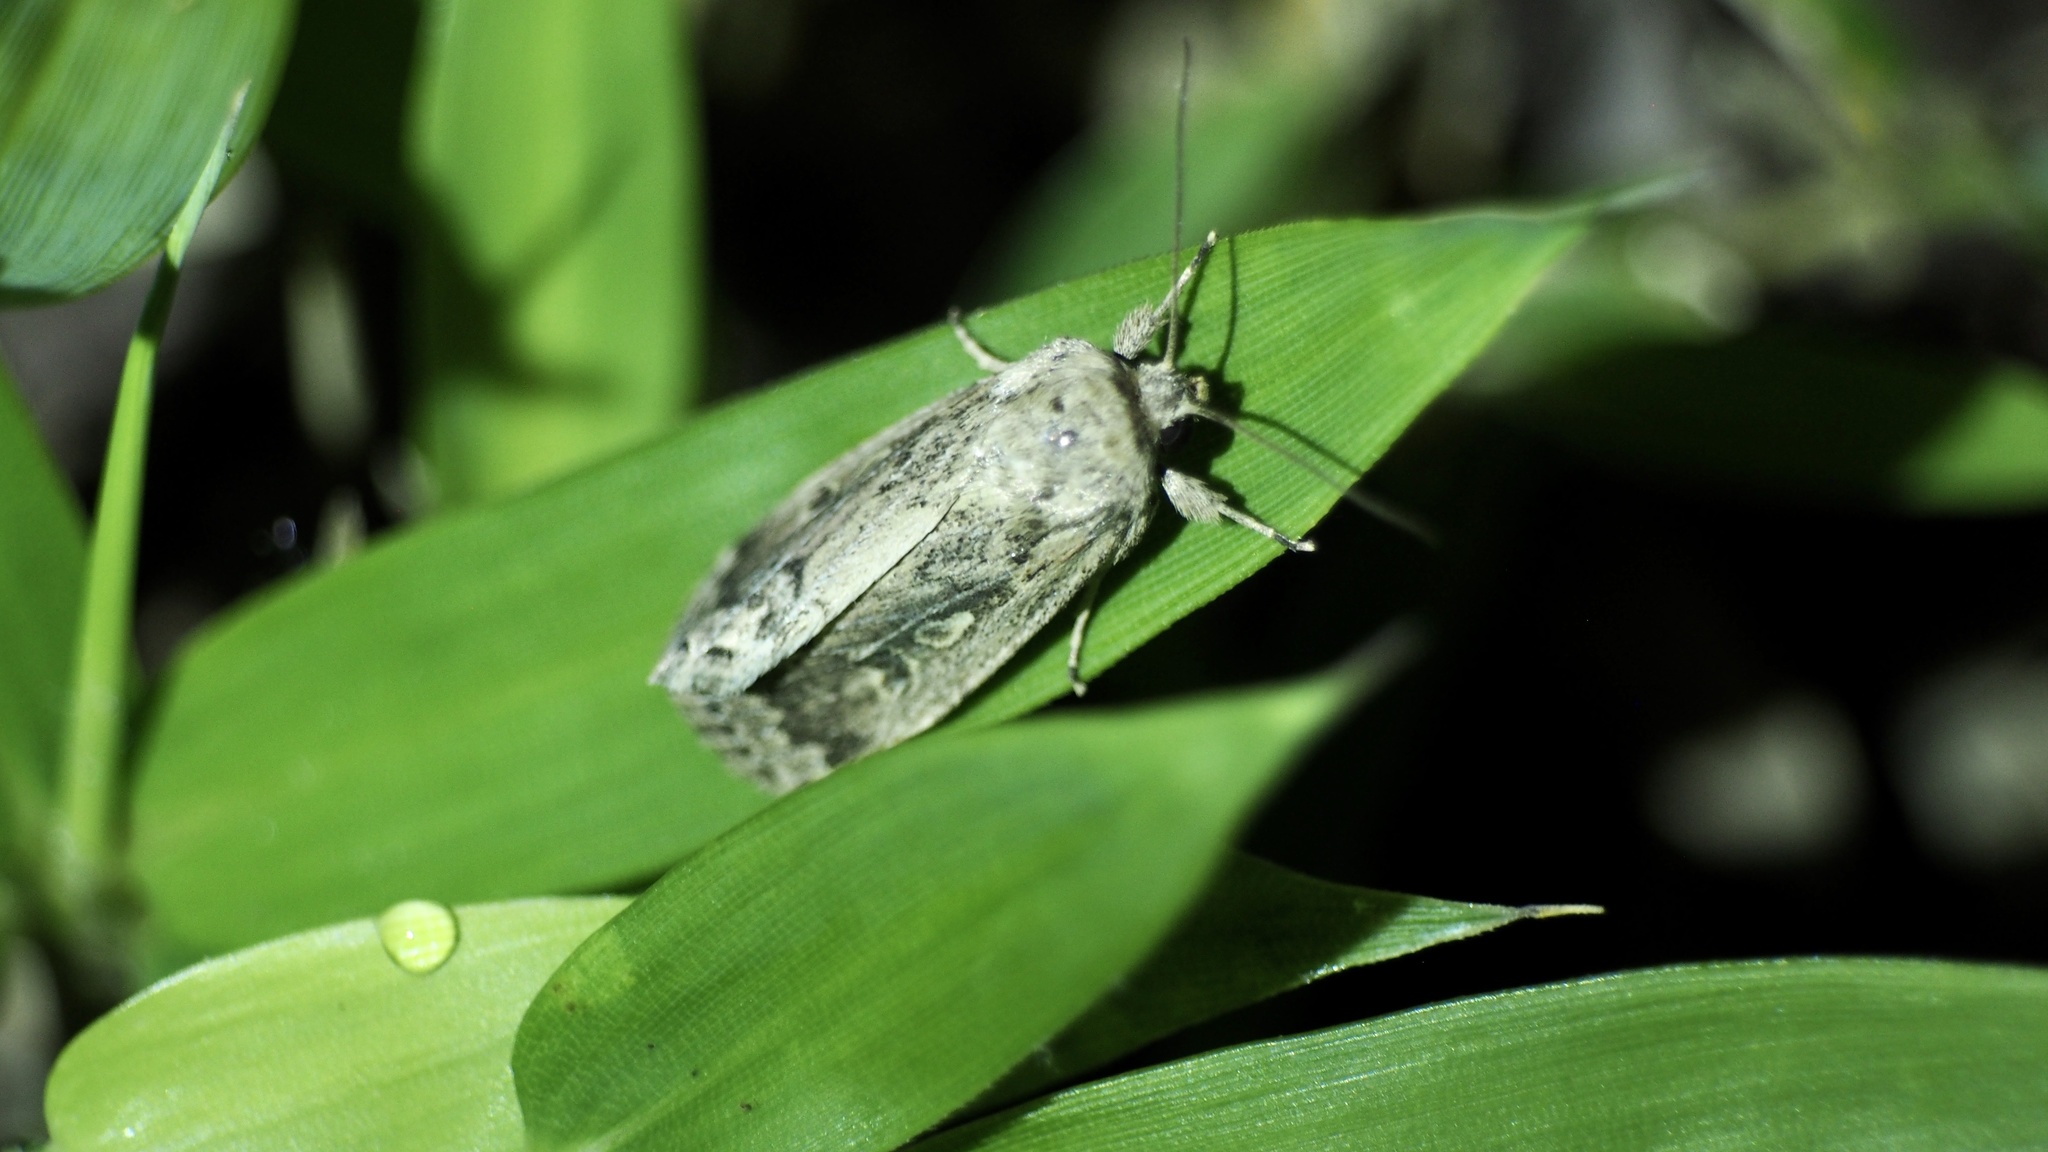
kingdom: Animalia
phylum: Arthropoda
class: Insecta
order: Lepidoptera
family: Noctuidae
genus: Spodoptera
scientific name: Spodoptera depravata
